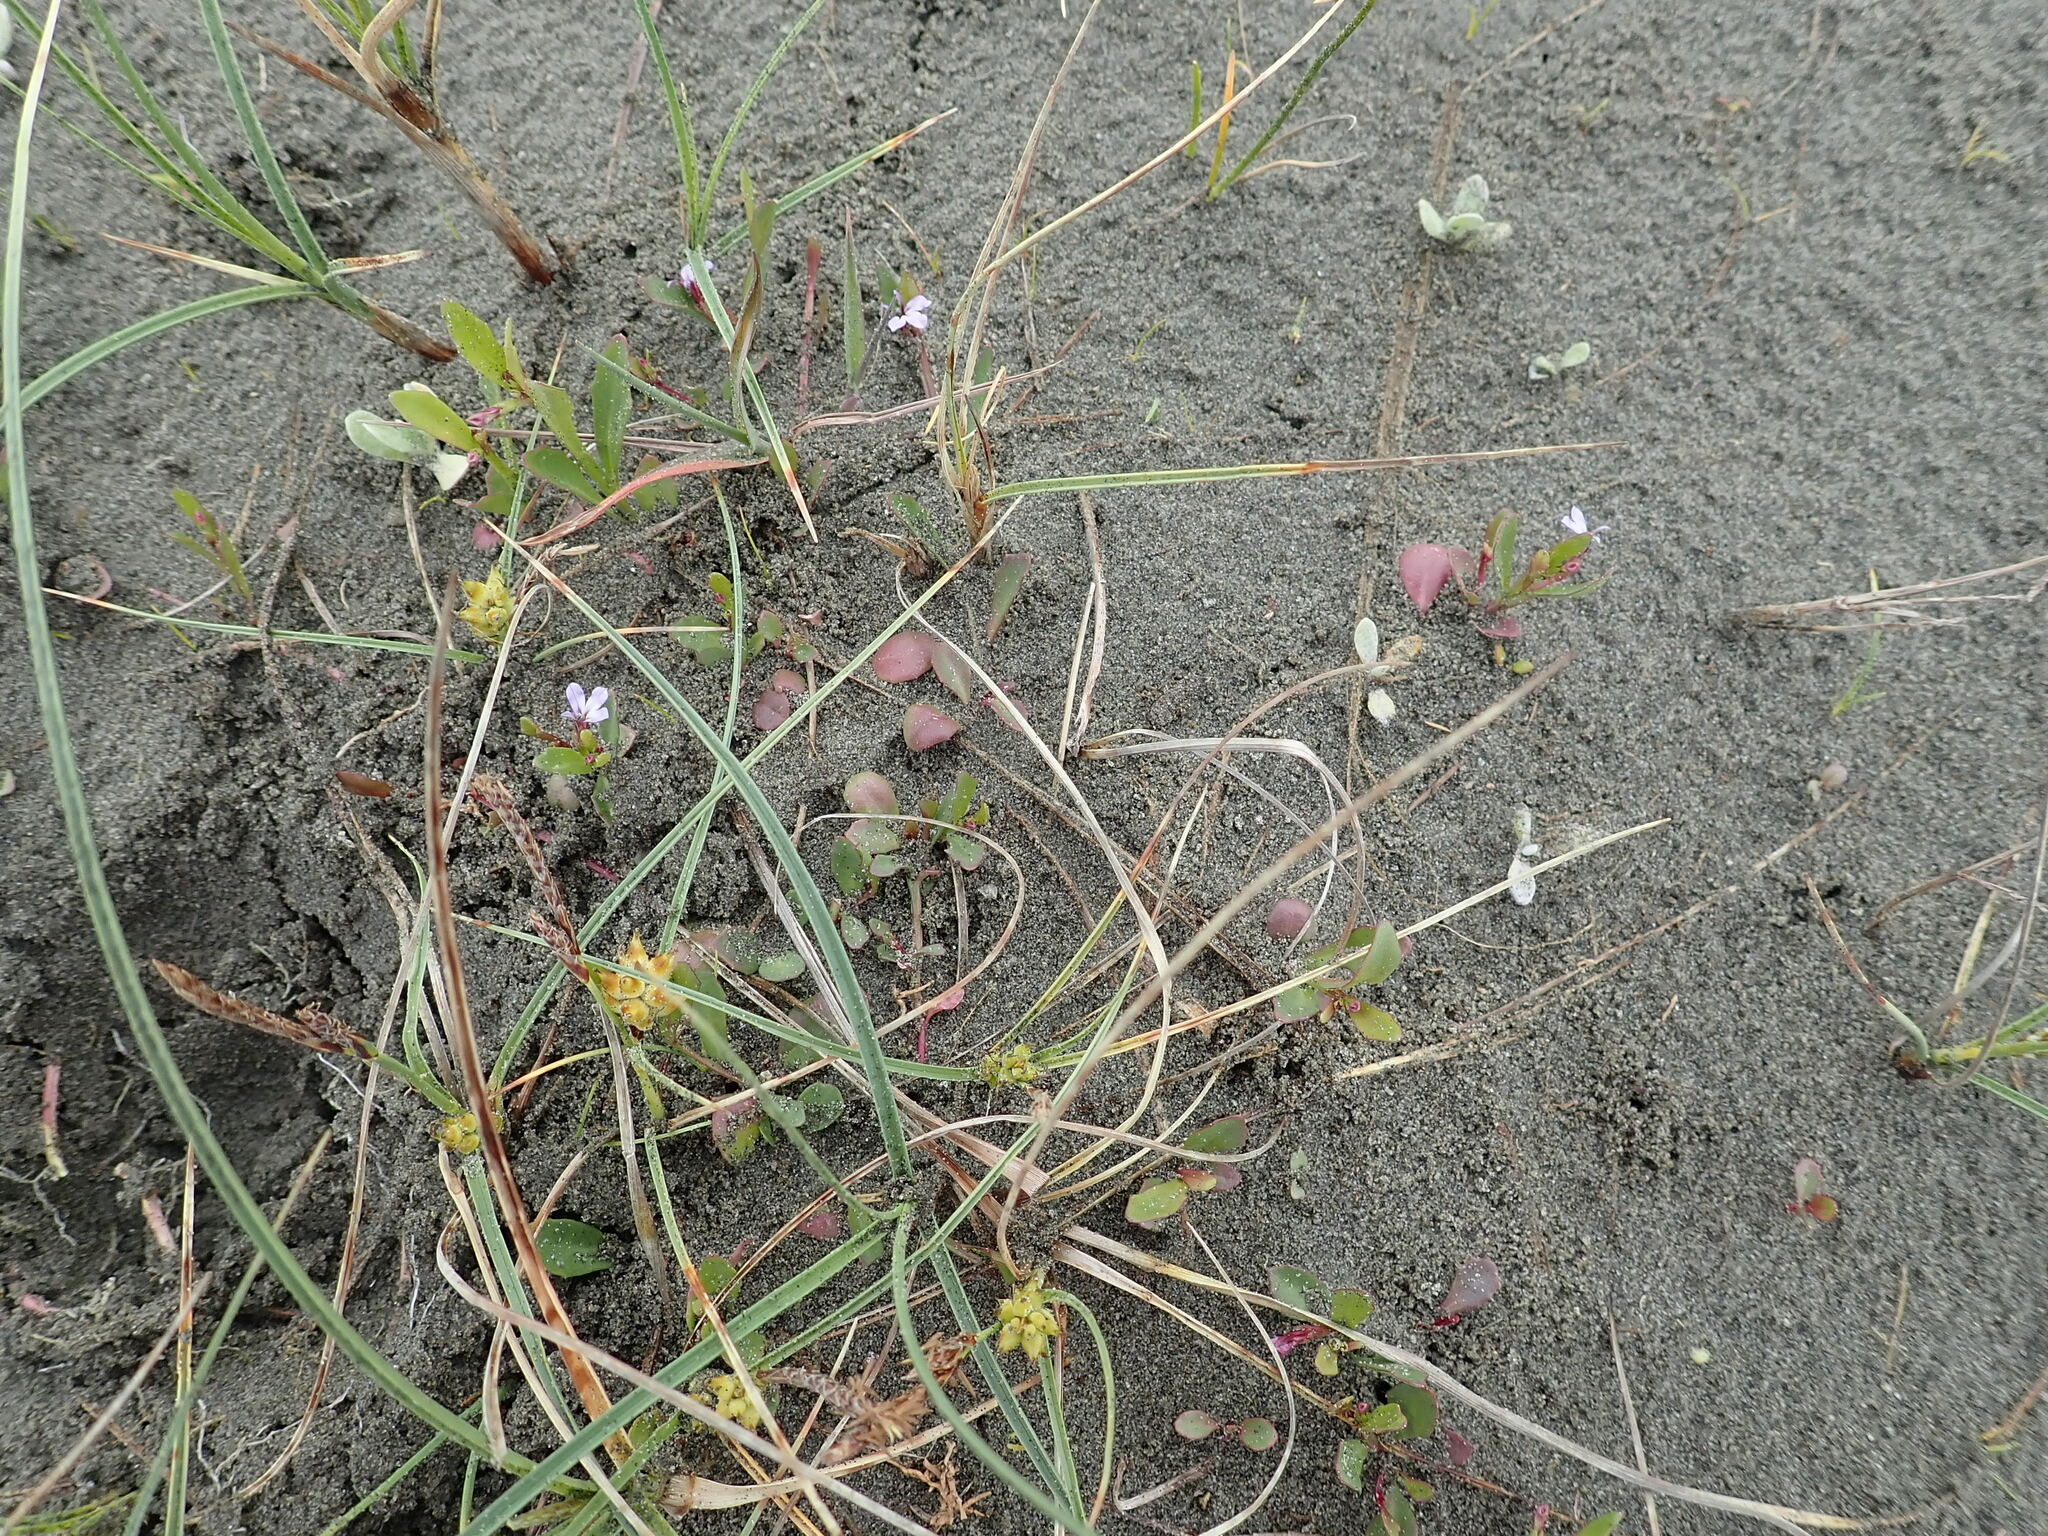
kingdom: Plantae
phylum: Tracheophyta
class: Magnoliopsida
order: Asterales
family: Campanulaceae
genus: Lobelia
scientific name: Lobelia anceps
